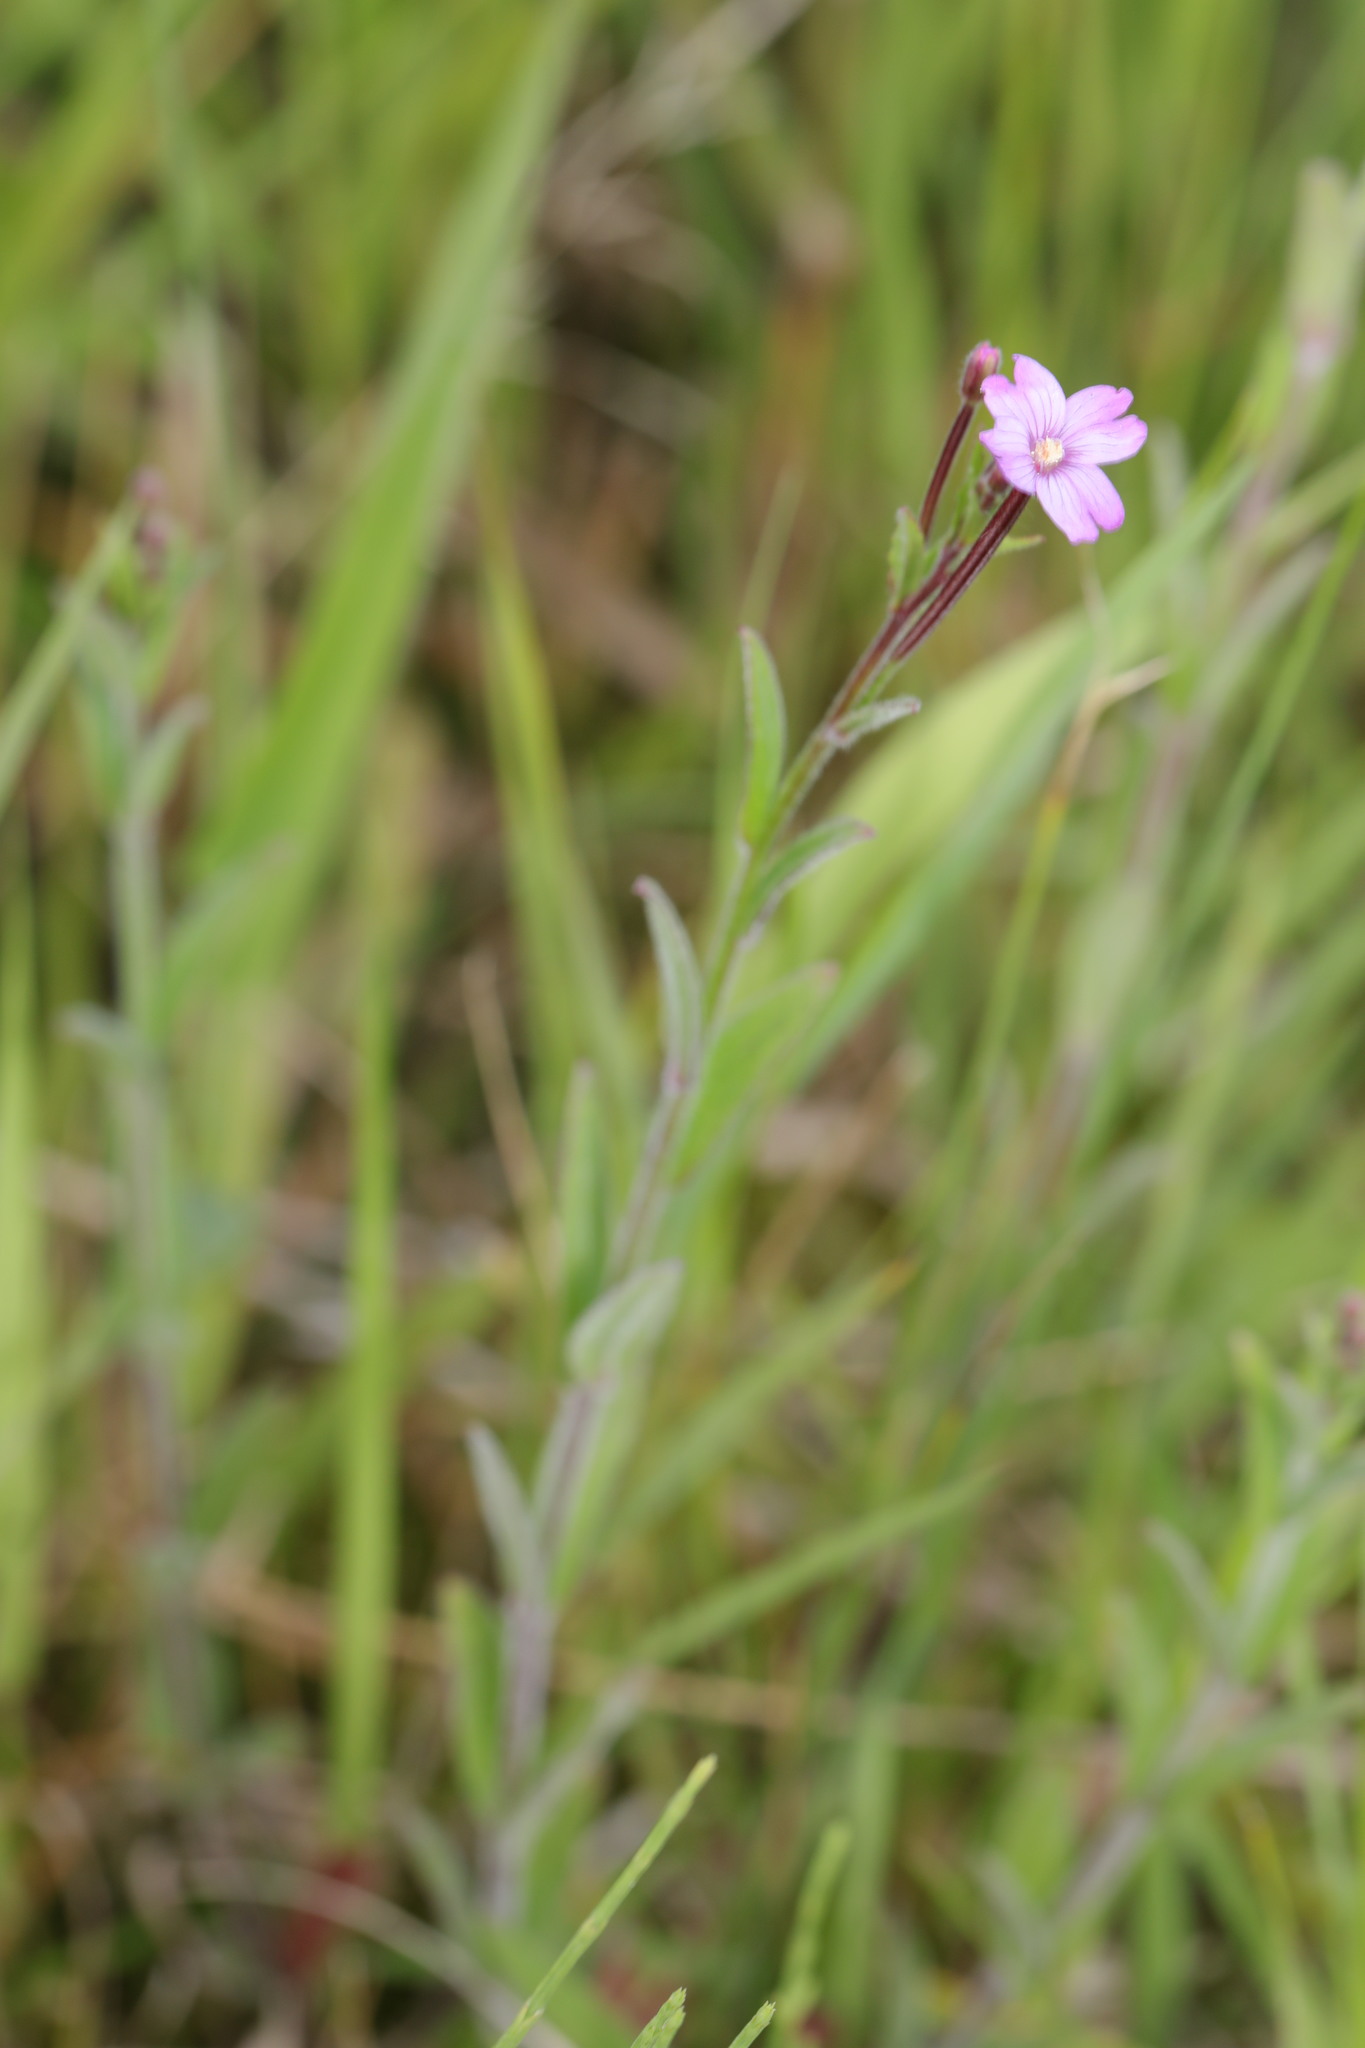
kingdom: Plantae
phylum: Tracheophyta
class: Magnoliopsida
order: Myrtales
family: Onagraceae
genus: Epilobium
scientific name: Epilobium parviflorum
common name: Hoary willowherb
